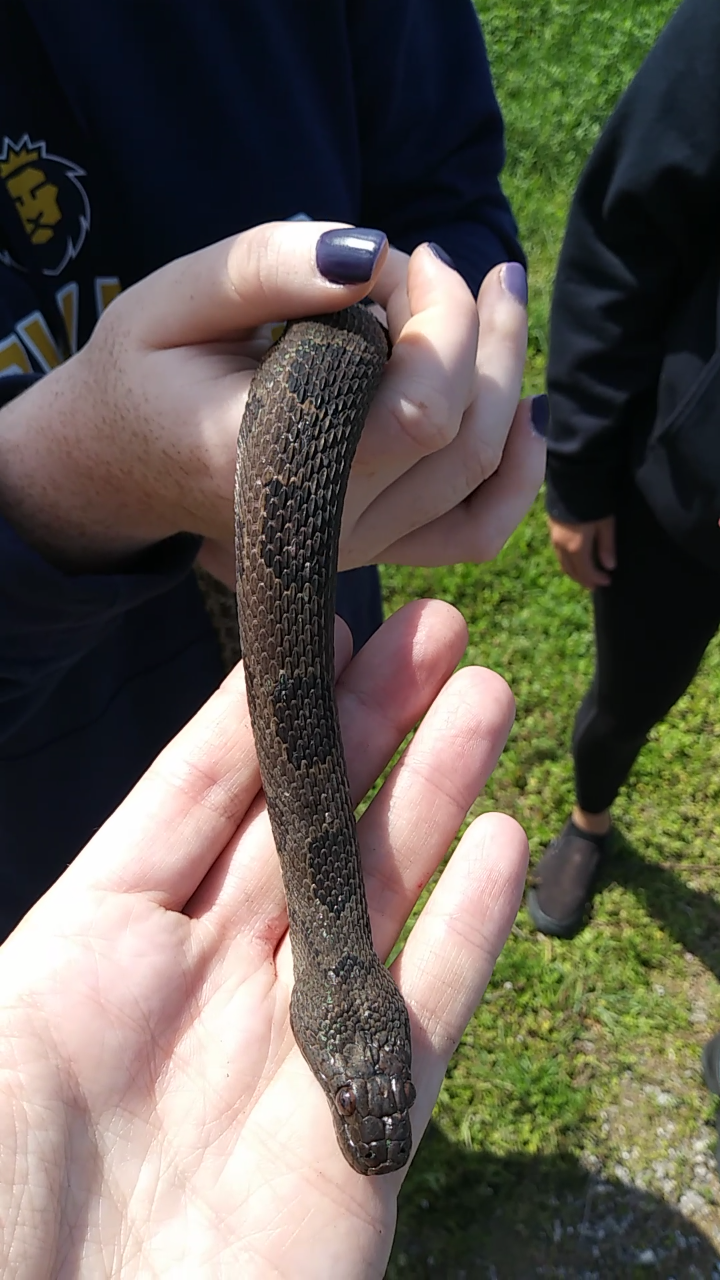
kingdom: Animalia
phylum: Chordata
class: Squamata
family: Colubridae
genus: Nerodia
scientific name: Nerodia taxispilota
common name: Brown water snake
